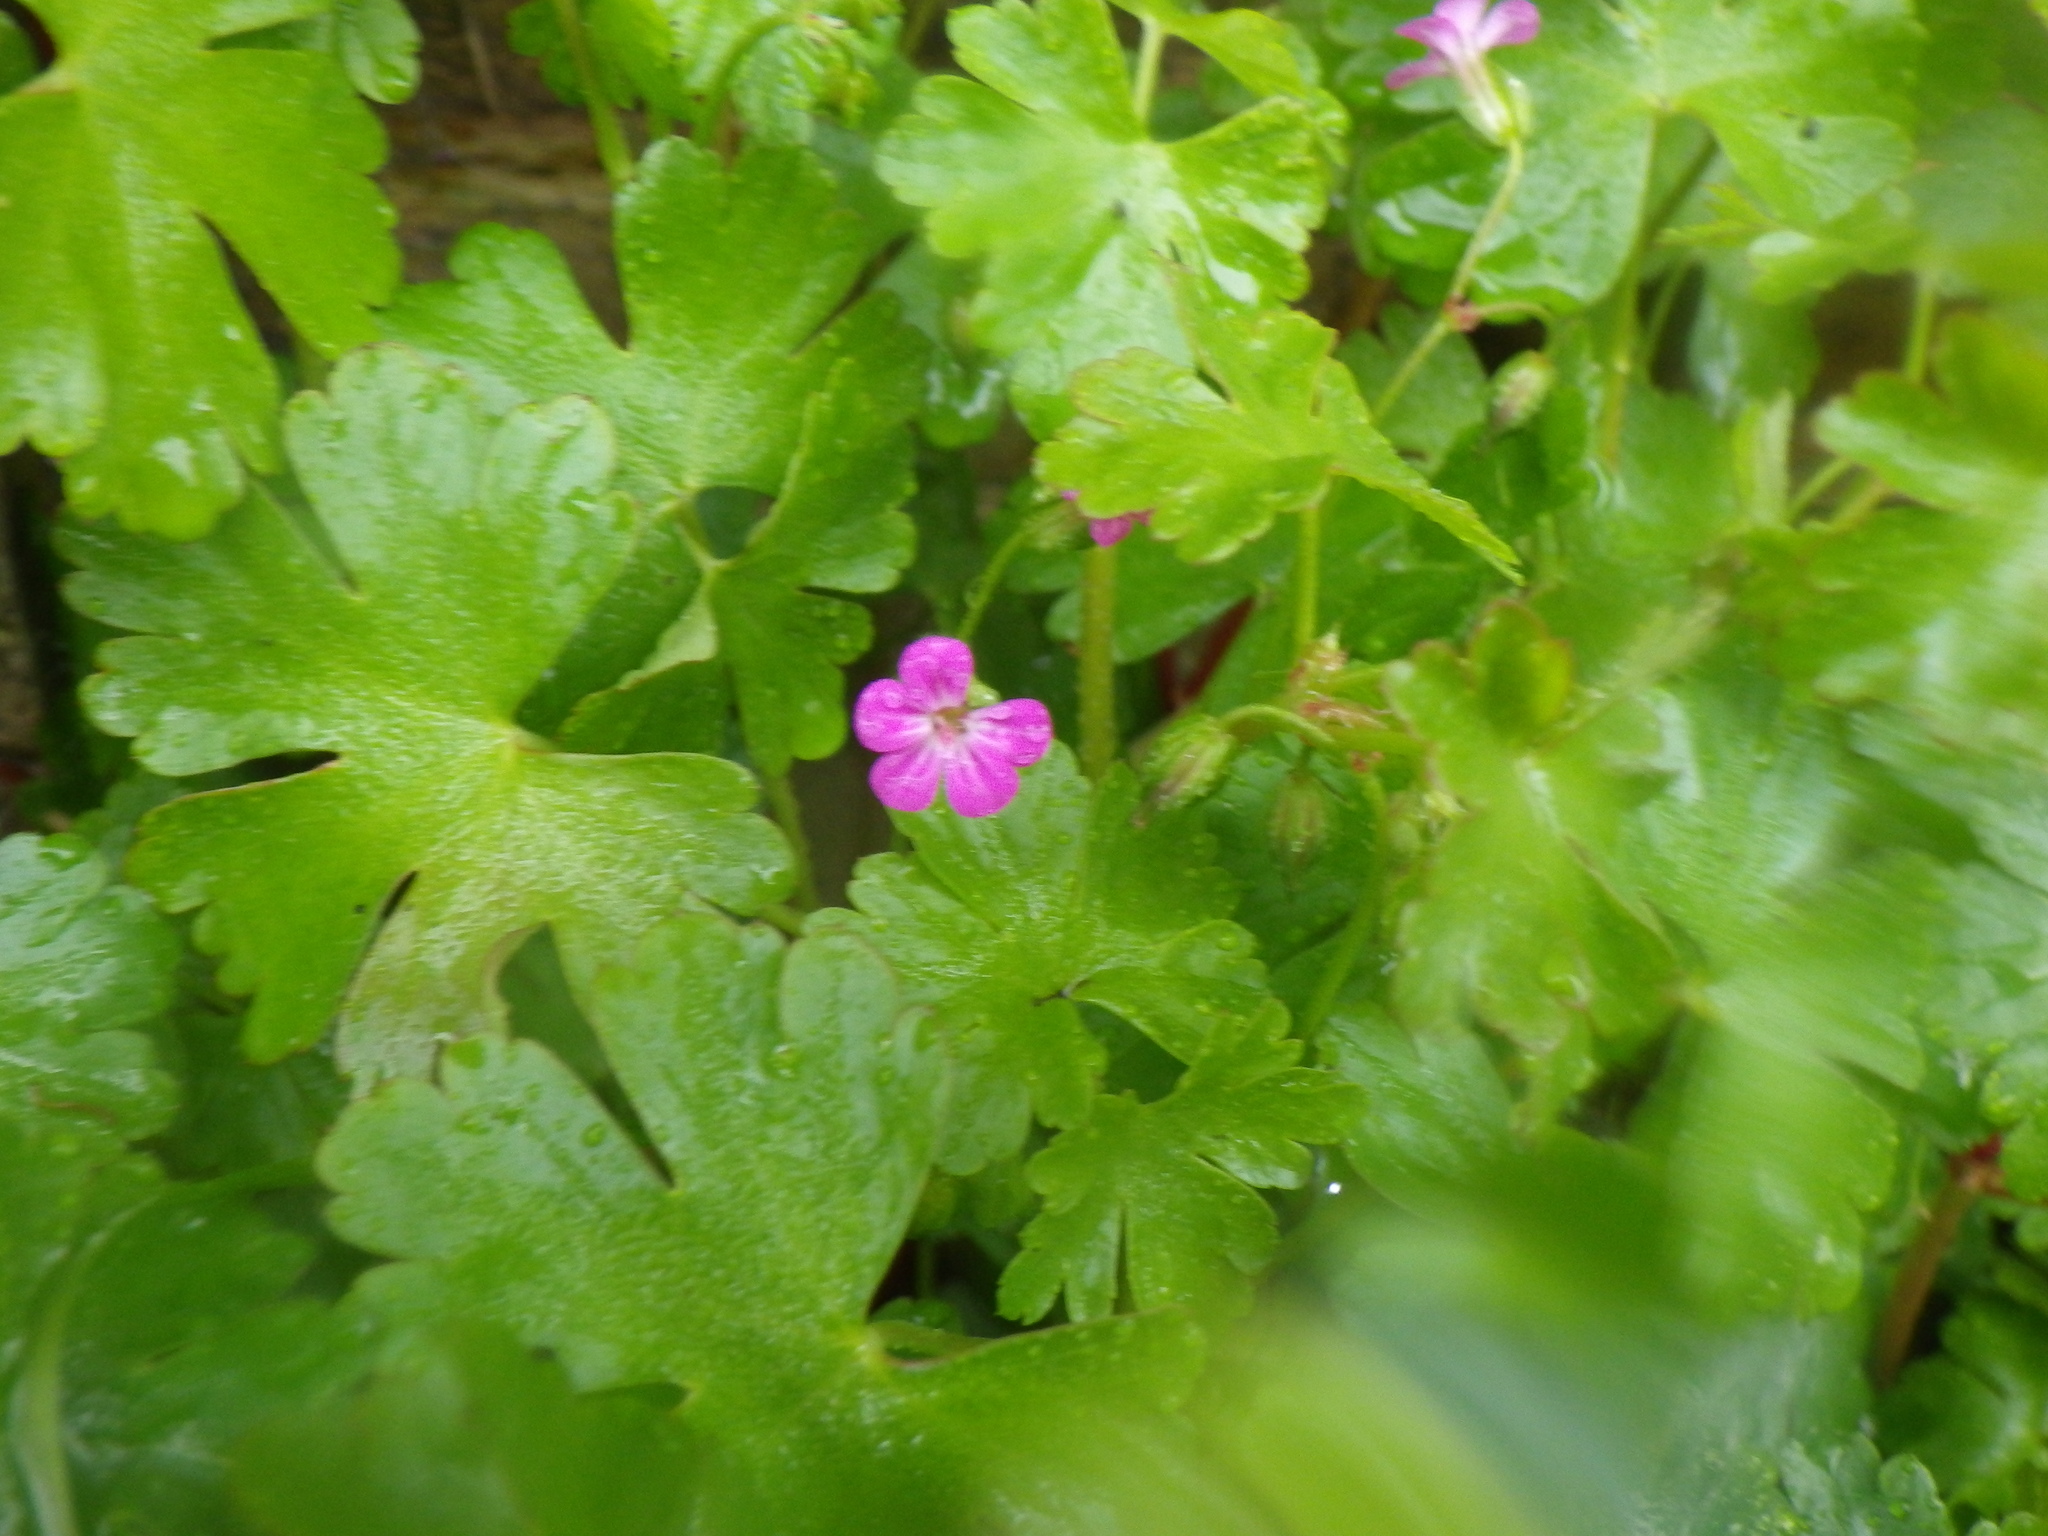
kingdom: Plantae
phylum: Tracheophyta
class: Magnoliopsida
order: Geraniales
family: Geraniaceae
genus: Geranium
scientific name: Geranium lucidum
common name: Shining crane's-bill
